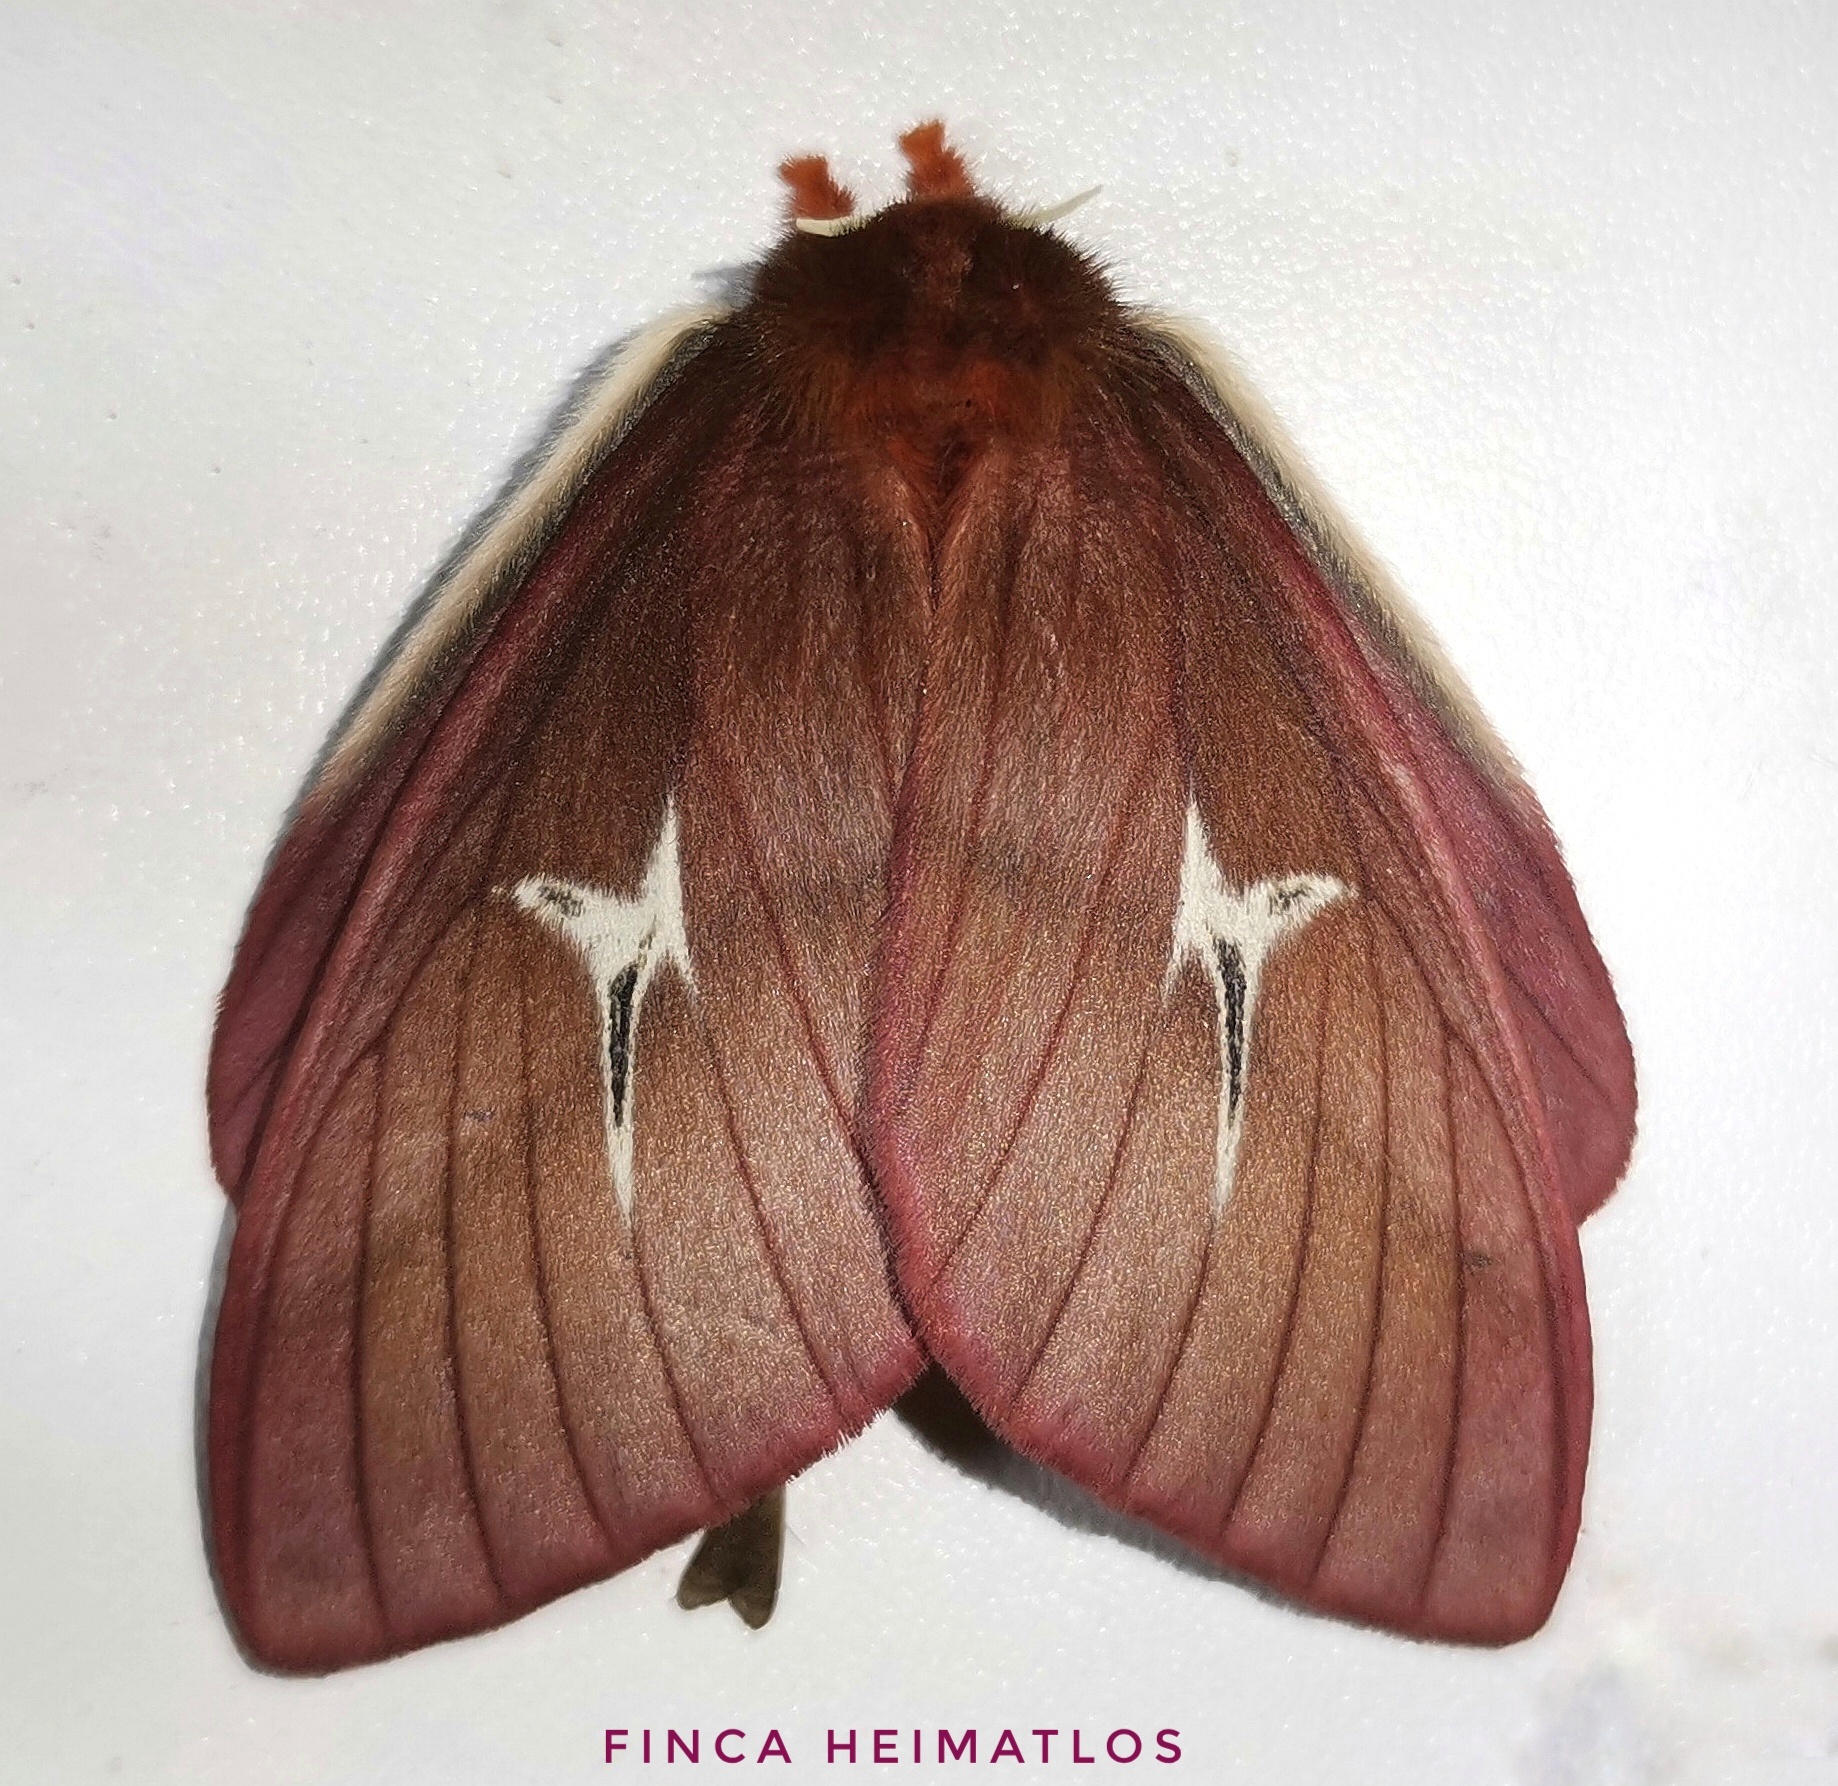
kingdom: Animalia
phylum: Arthropoda
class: Insecta
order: Lepidoptera
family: Saturniidae
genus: Cerodirphia
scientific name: Cerodirphia speciosa
